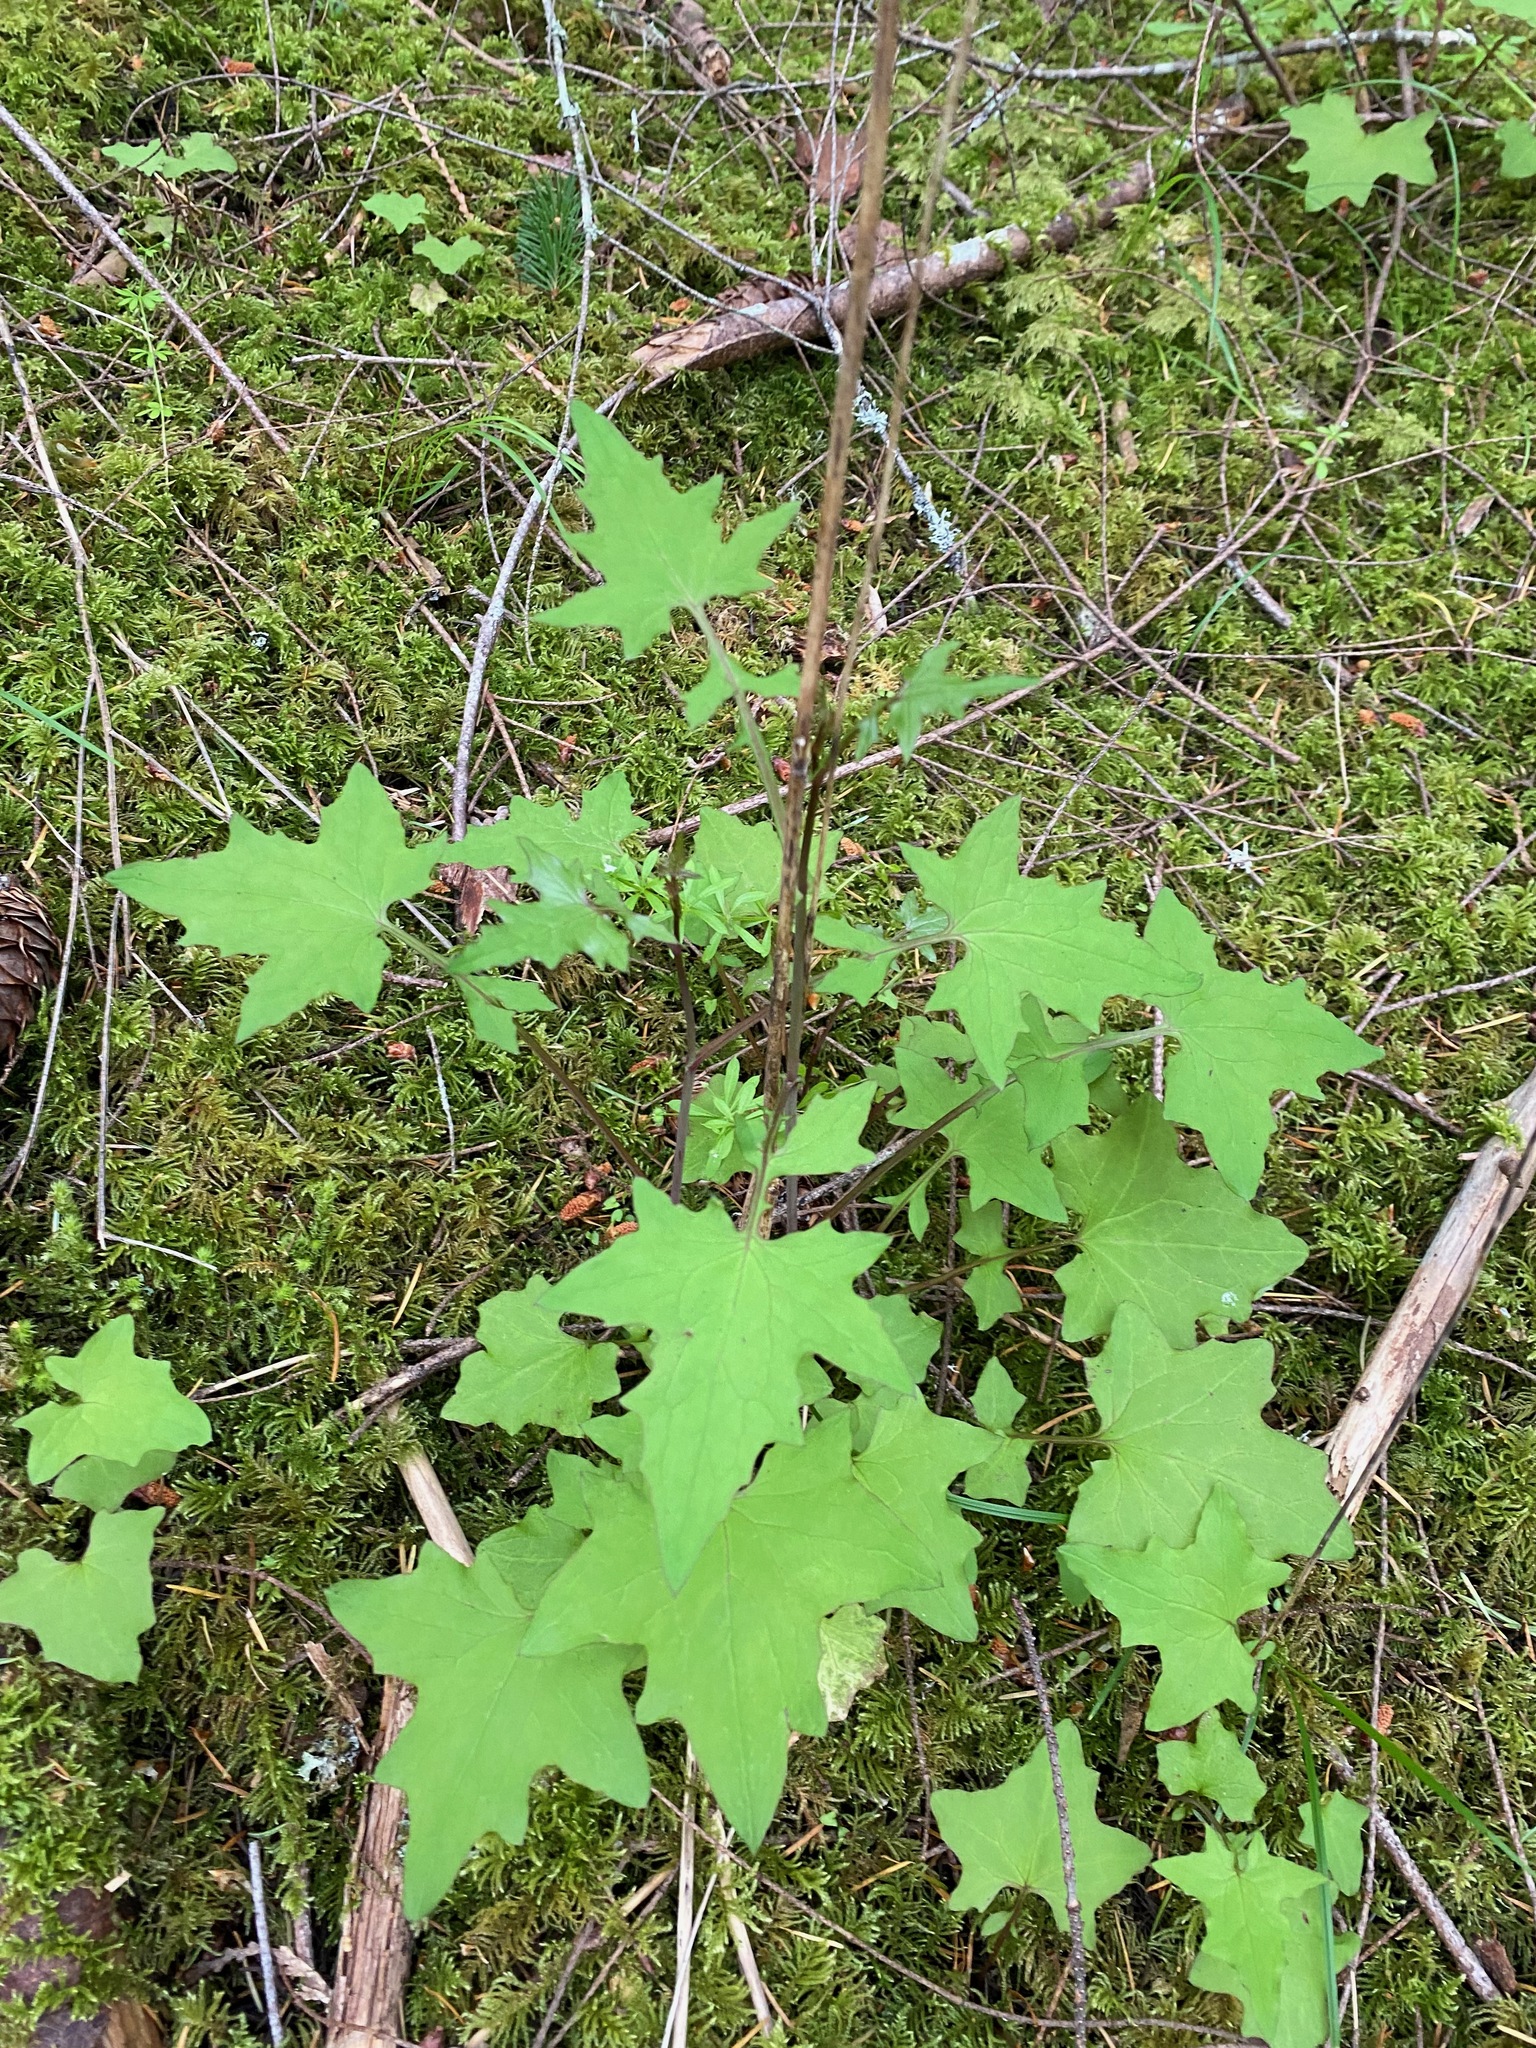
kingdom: Plantae
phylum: Tracheophyta
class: Magnoliopsida
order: Asterales
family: Asteraceae
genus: Mycelis
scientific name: Mycelis muralis
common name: Wall lettuce
